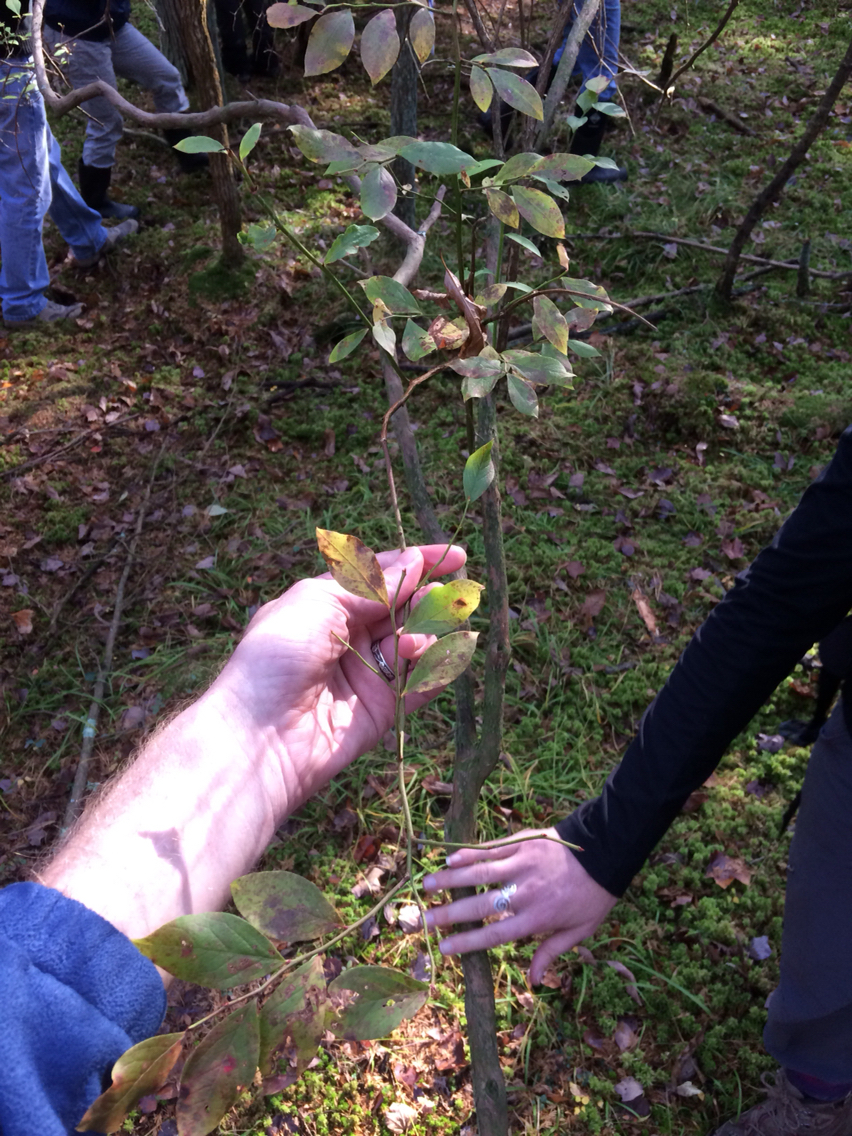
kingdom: Plantae
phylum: Tracheophyta
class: Magnoliopsida
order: Ericales
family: Ericaceae
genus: Vaccinium
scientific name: Vaccinium corymbosum
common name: Blueberry
